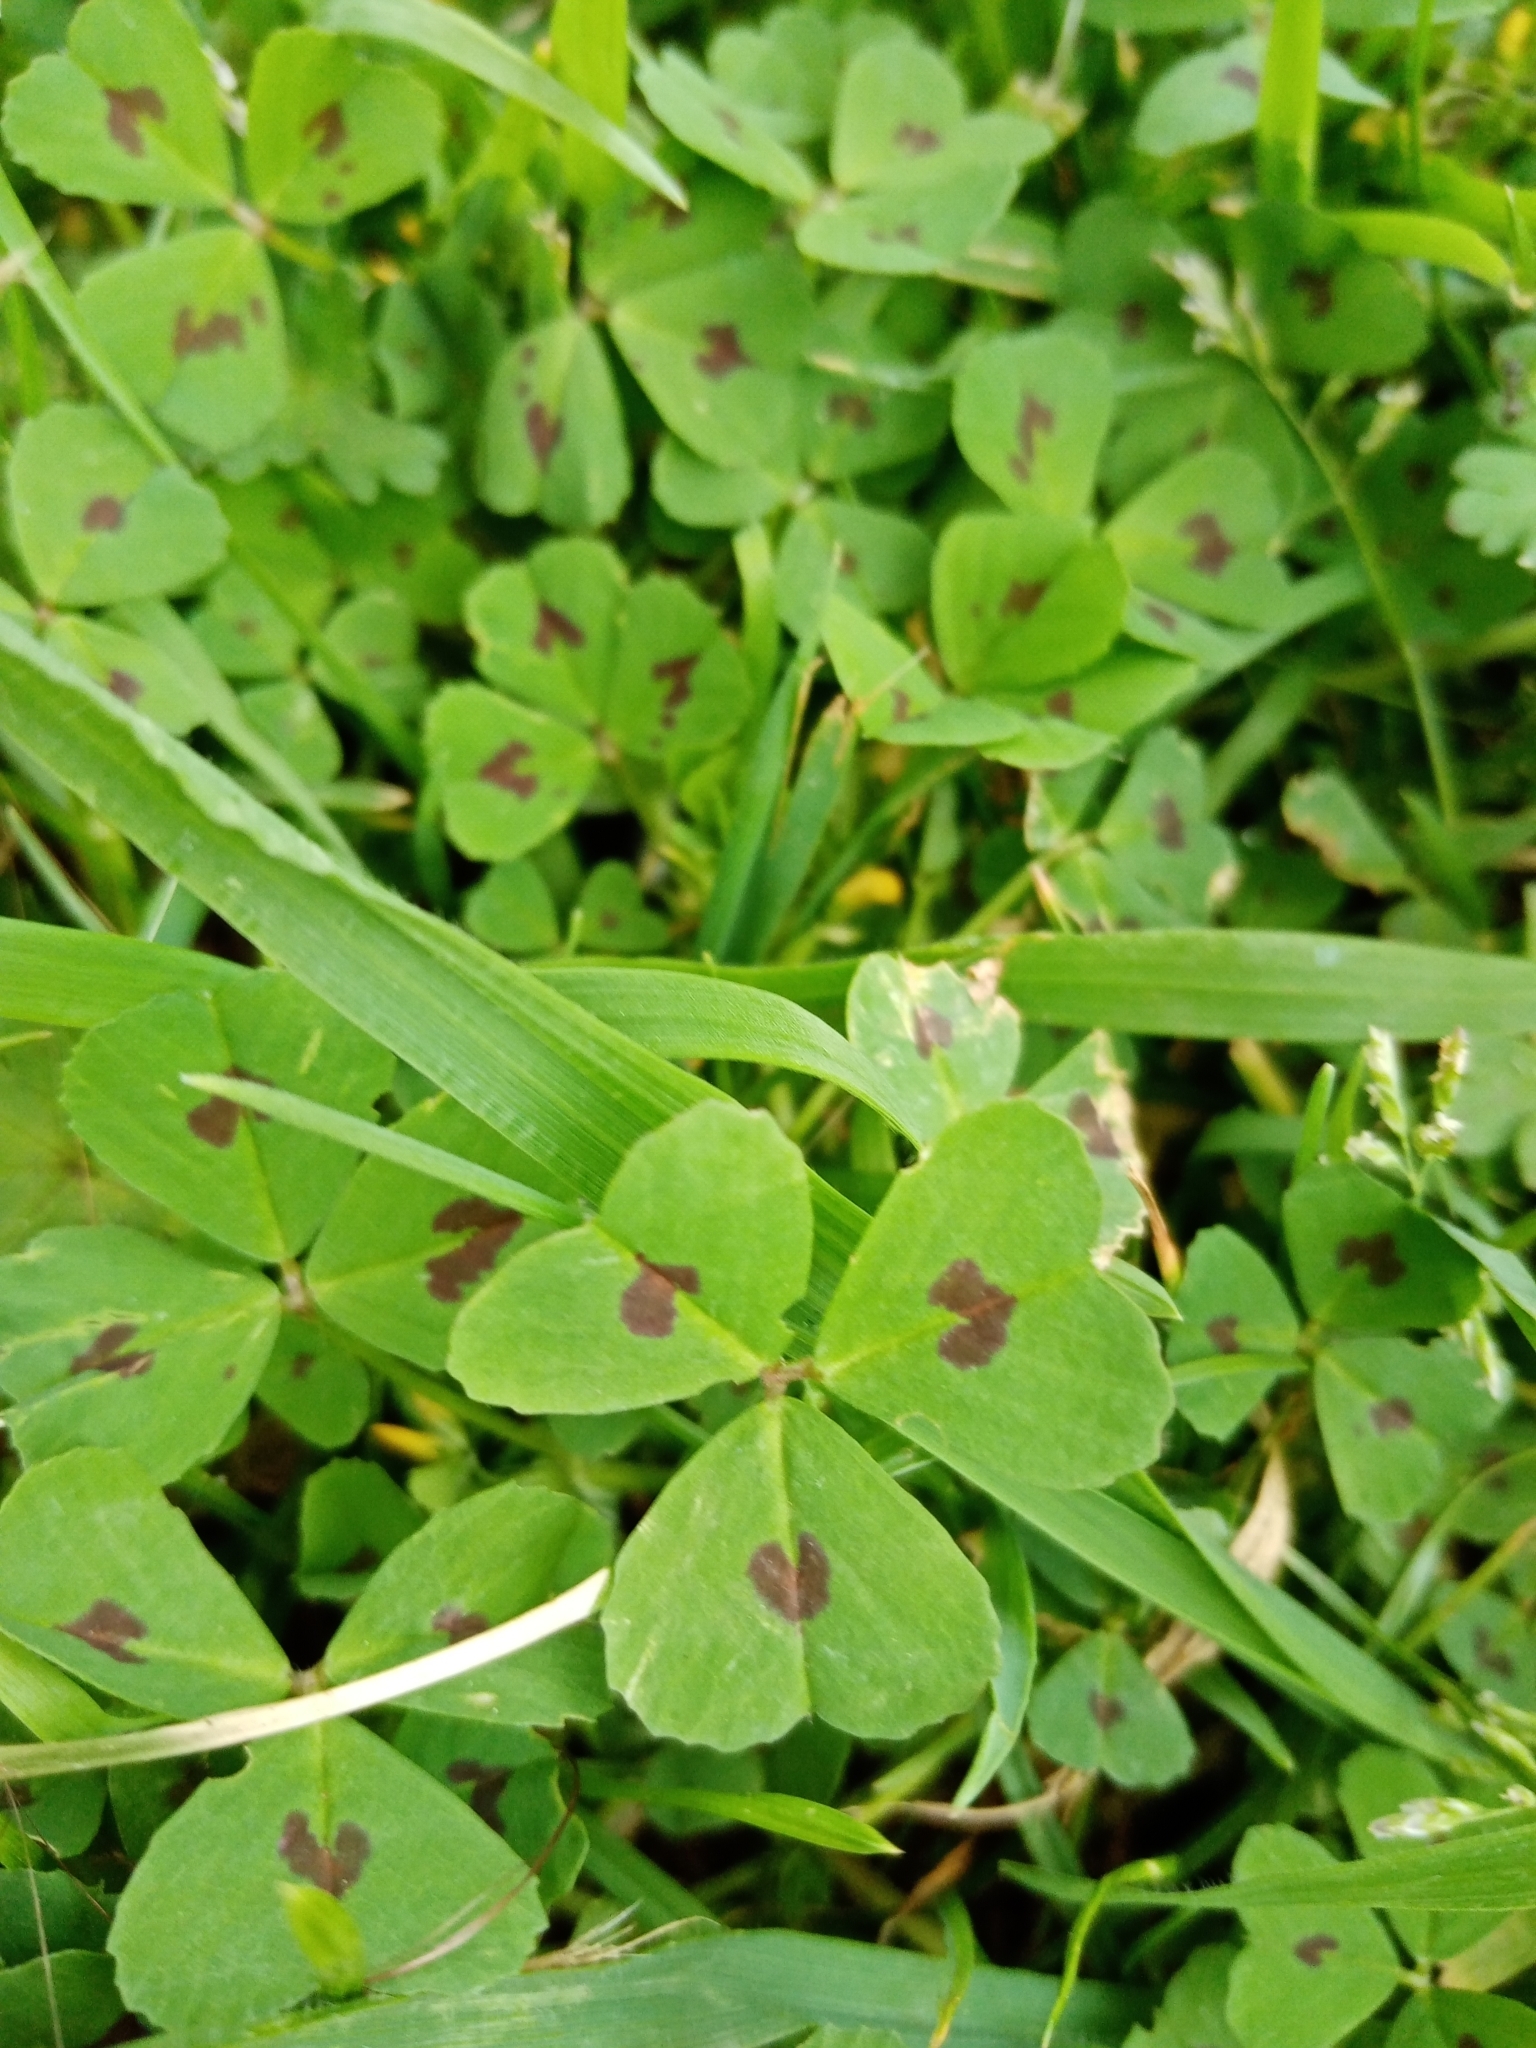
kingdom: Plantae
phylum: Tracheophyta
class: Magnoliopsida
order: Fabales
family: Fabaceae
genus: Medicago
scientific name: Medicago arabica
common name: Spotted medick
